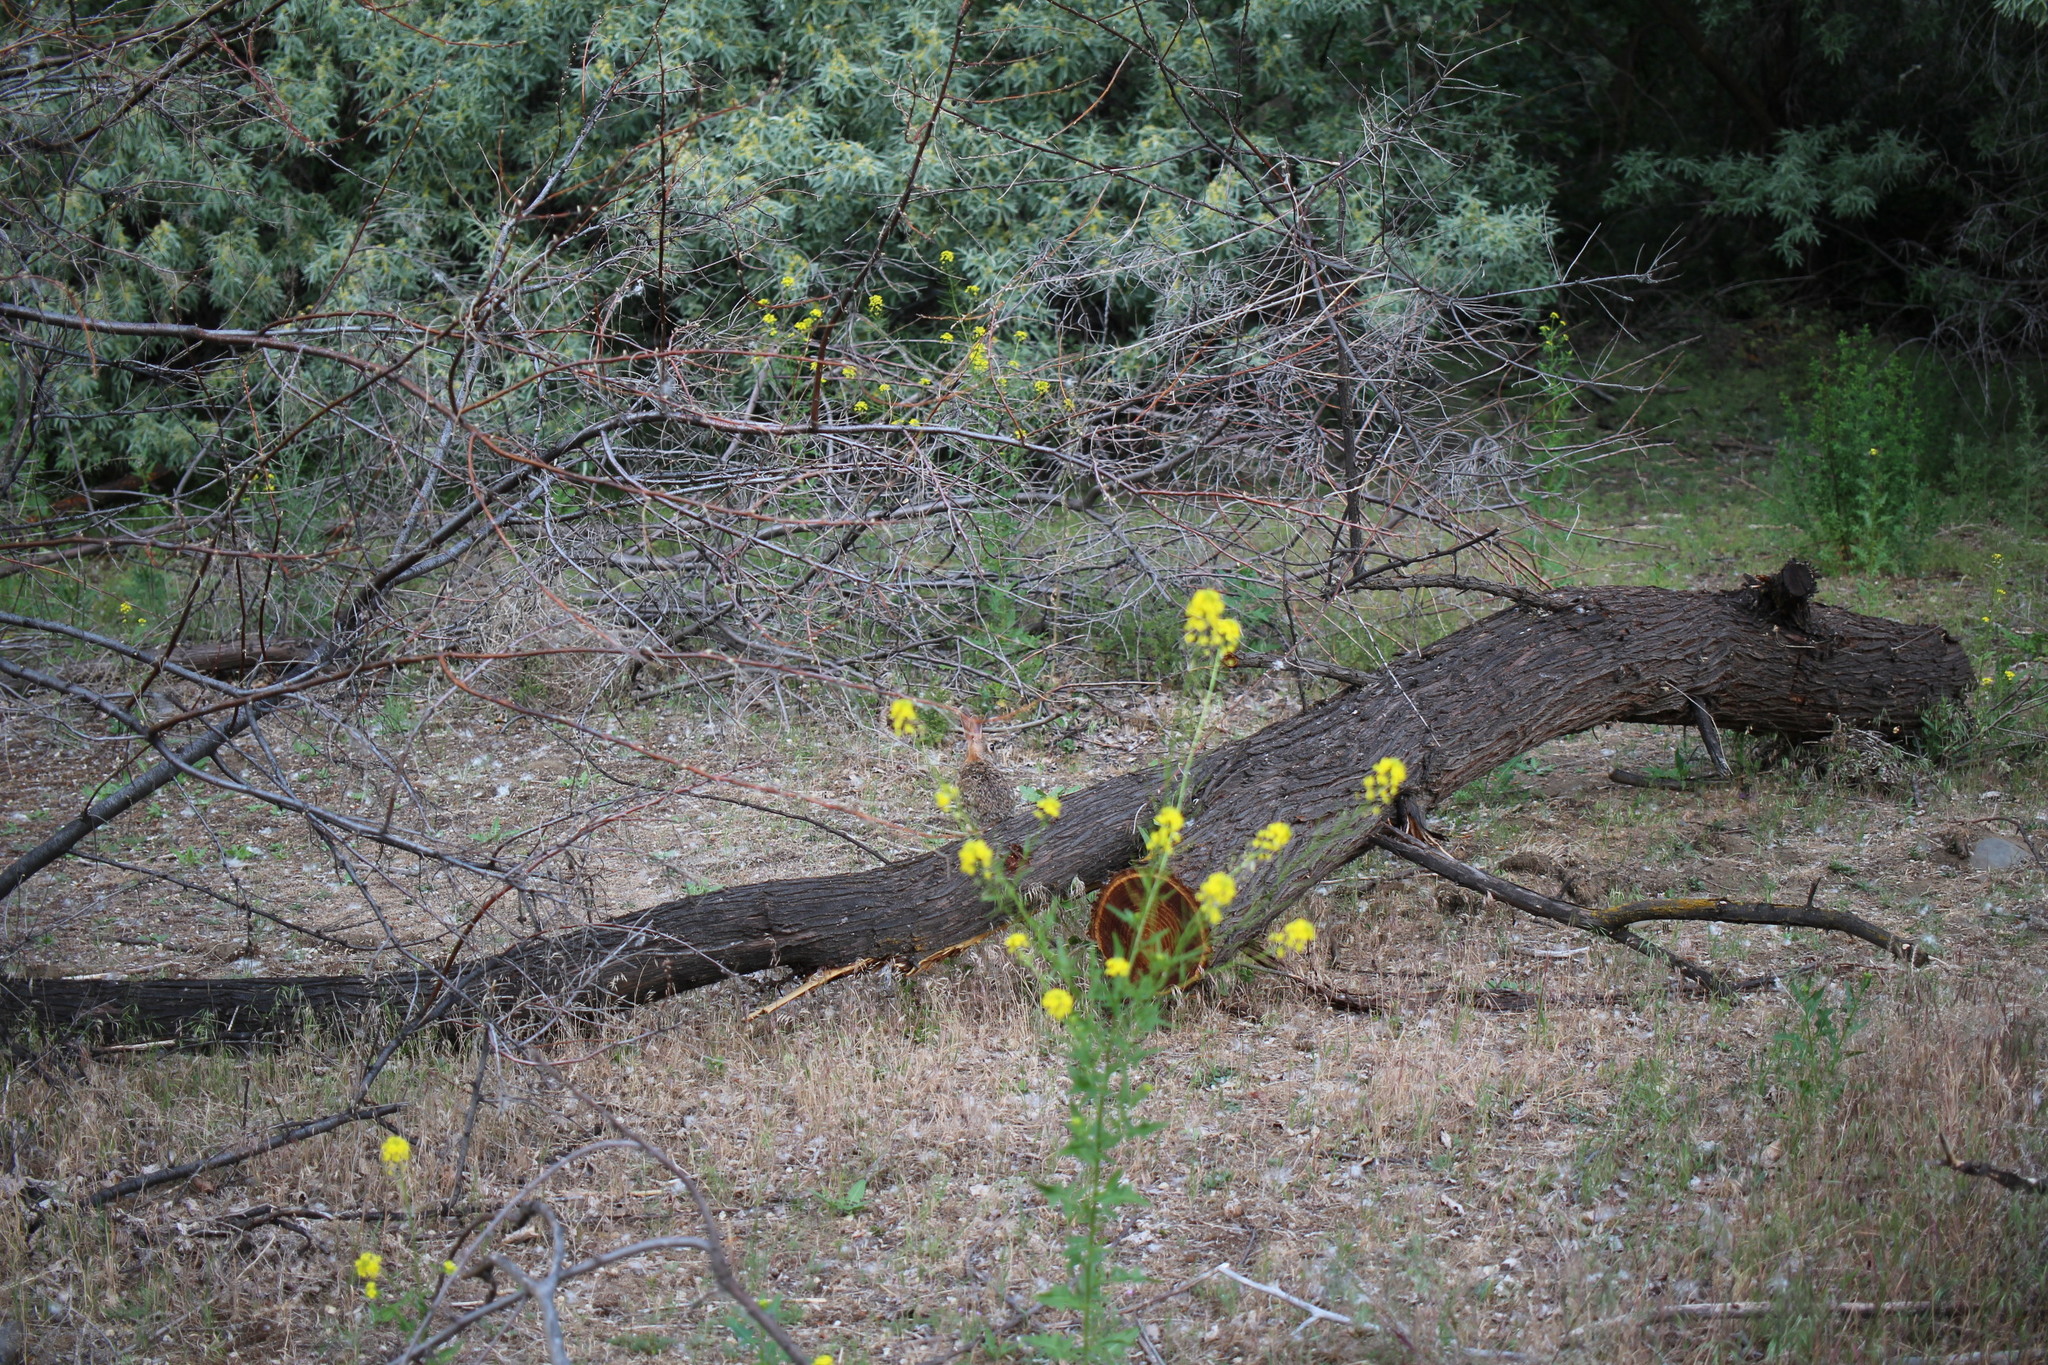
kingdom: Animalia
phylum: Chordata
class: Mammalia
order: Lagomorpha
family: Leporidae
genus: Sylvilagus
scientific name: Sylvilagus nuttallii
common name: Mountain cottontail
